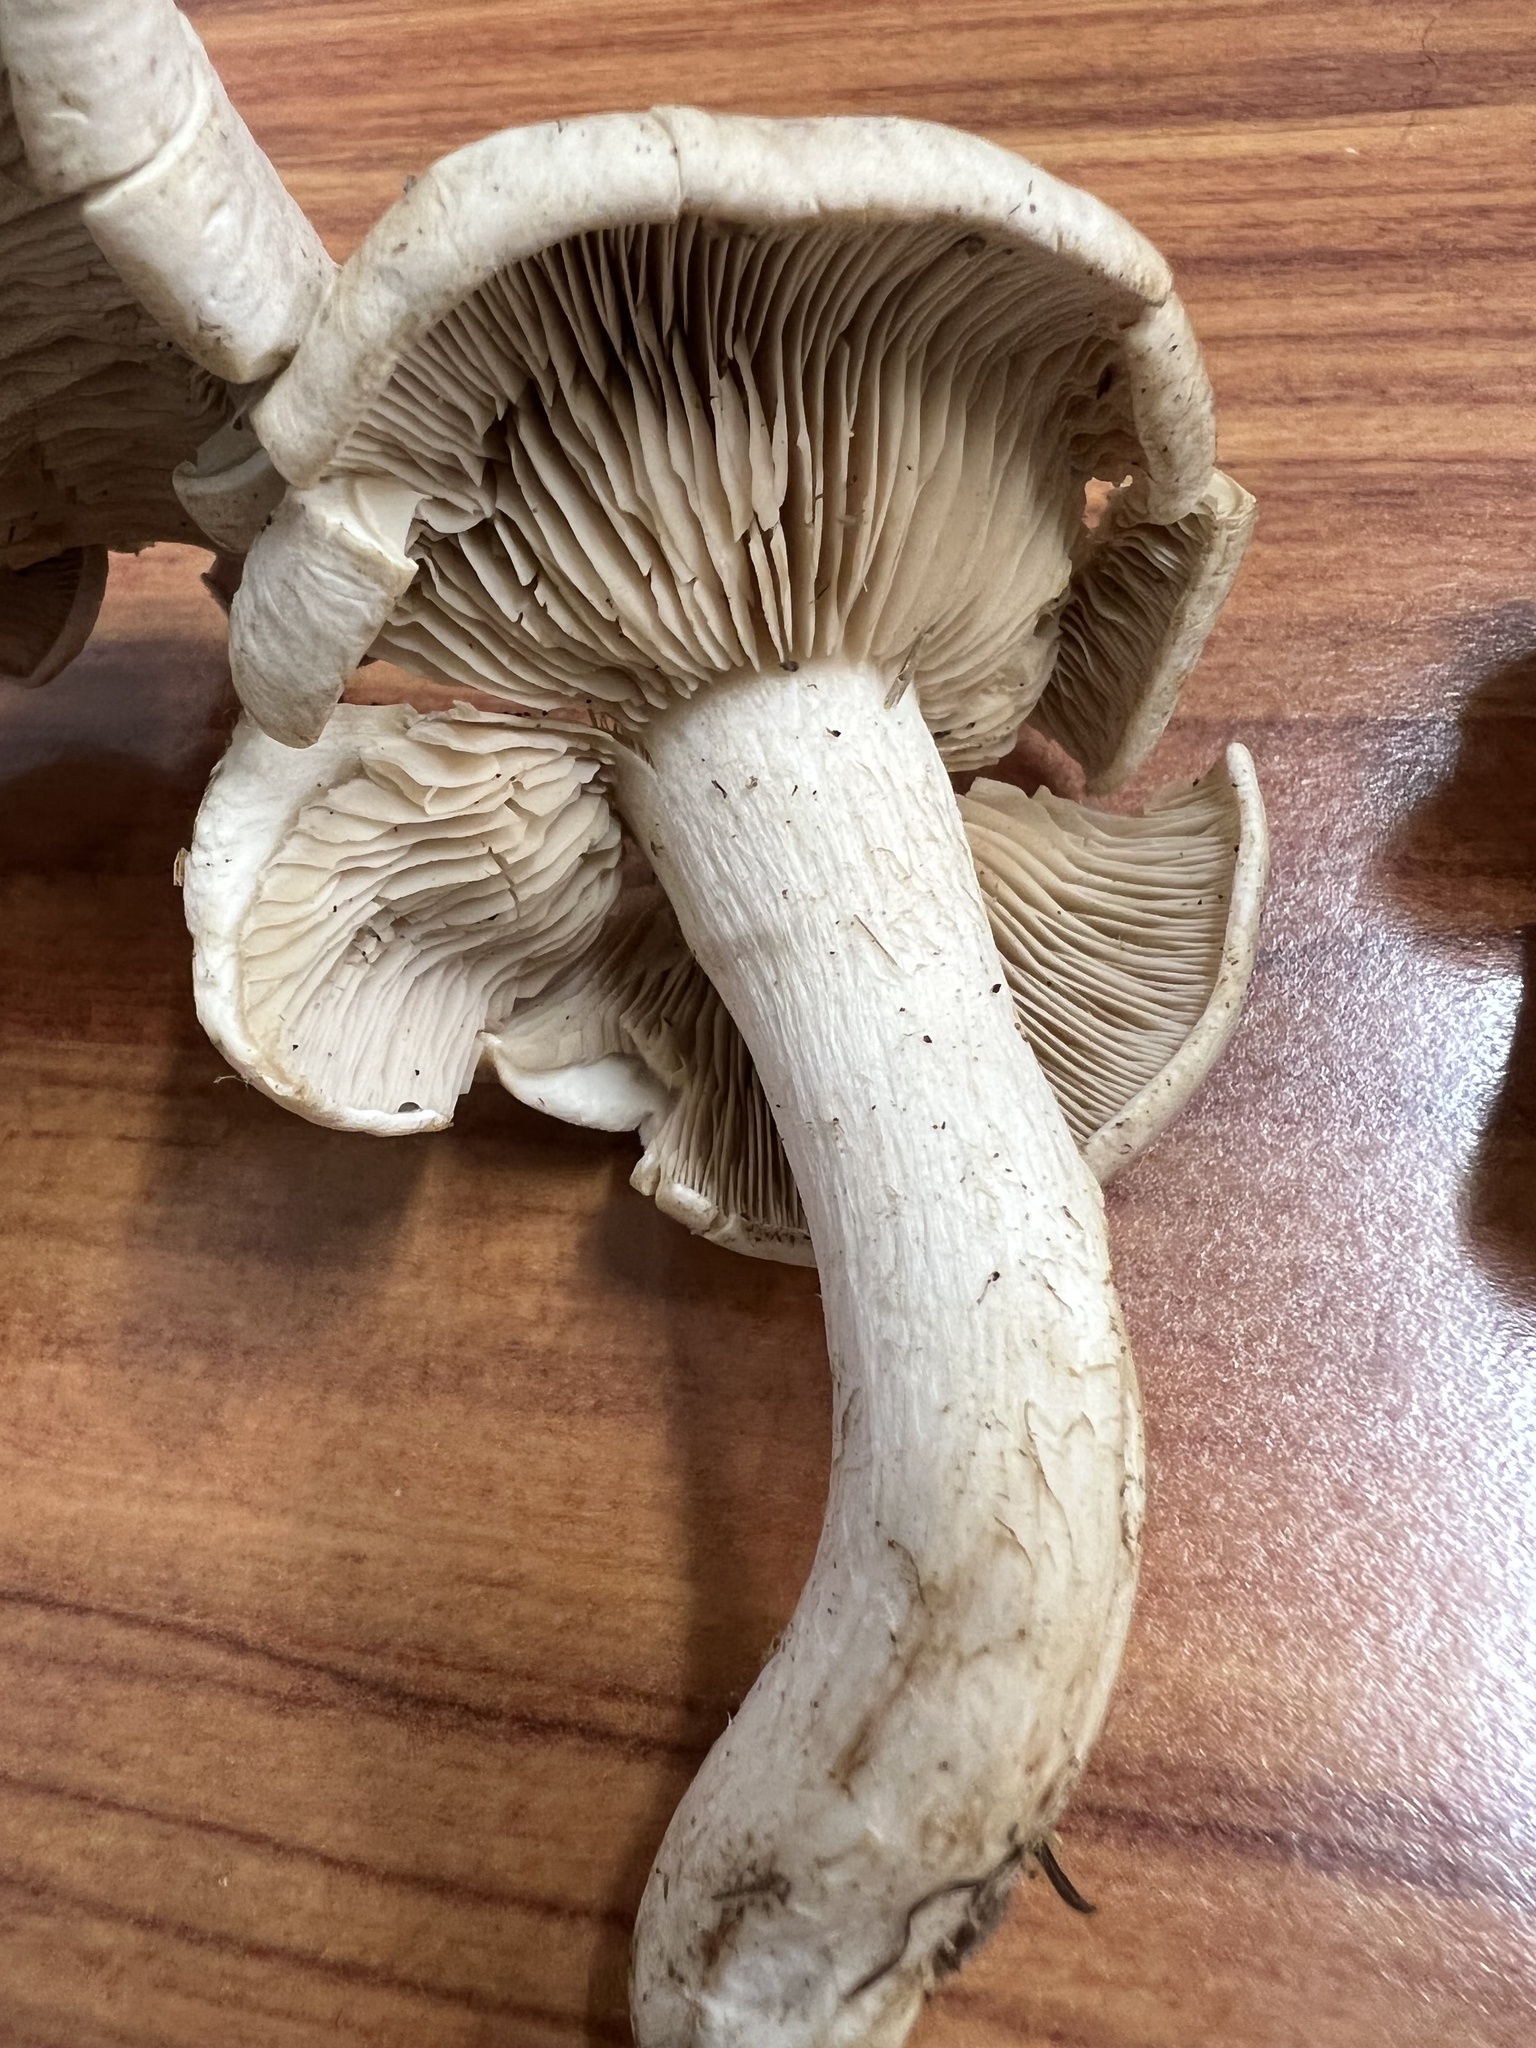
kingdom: Fungi
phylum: Basidiomycota
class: Agaricomycetes
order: Agaricales
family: Tricholomataceae
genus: Lepista
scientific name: Lepista luscina
